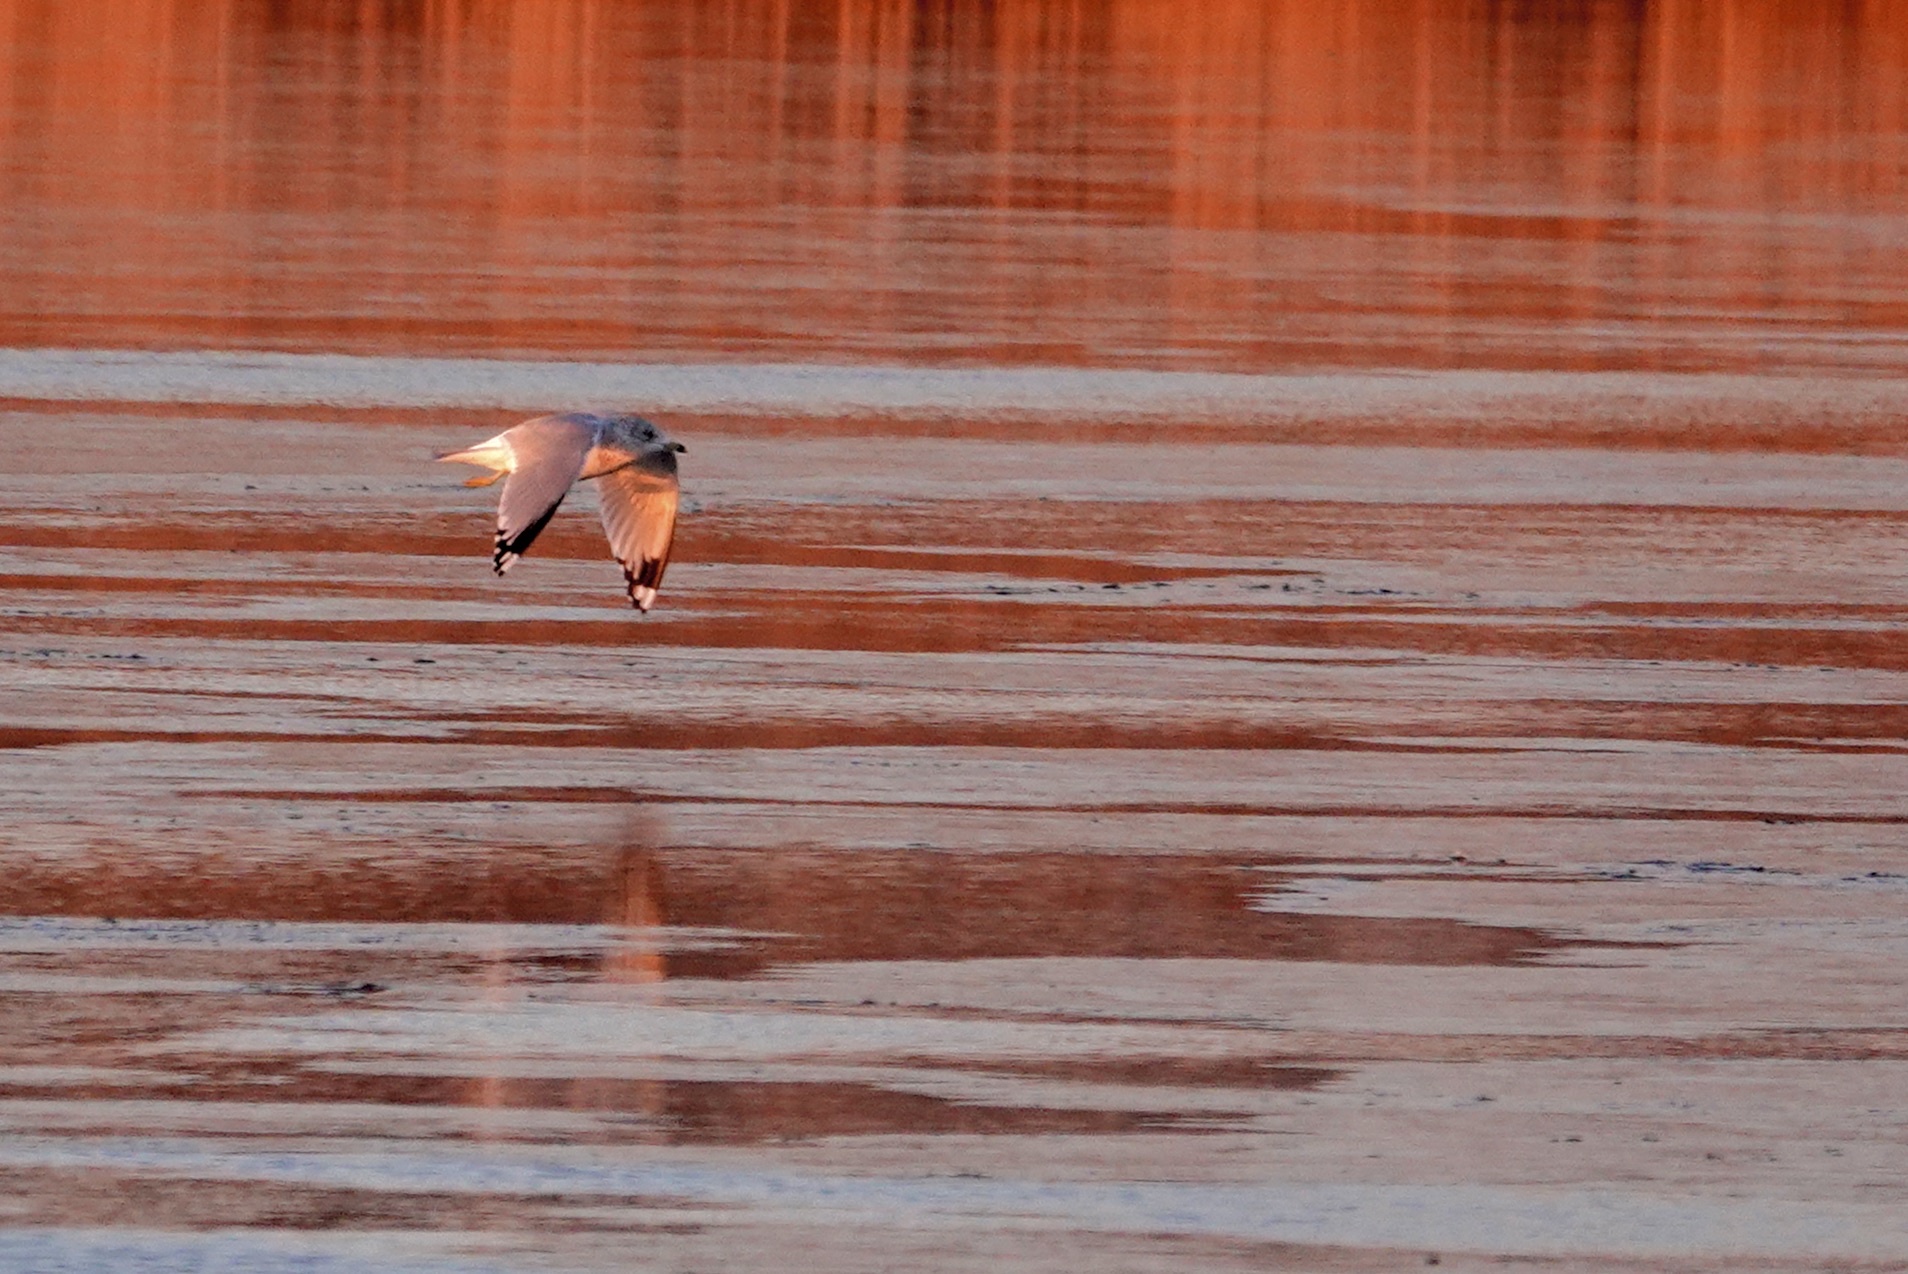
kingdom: Animalia
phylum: Chordata
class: Aves
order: Charadriiformes
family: Laridae
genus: Larus
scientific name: Larus delawarensis
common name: Ring-billed gull
